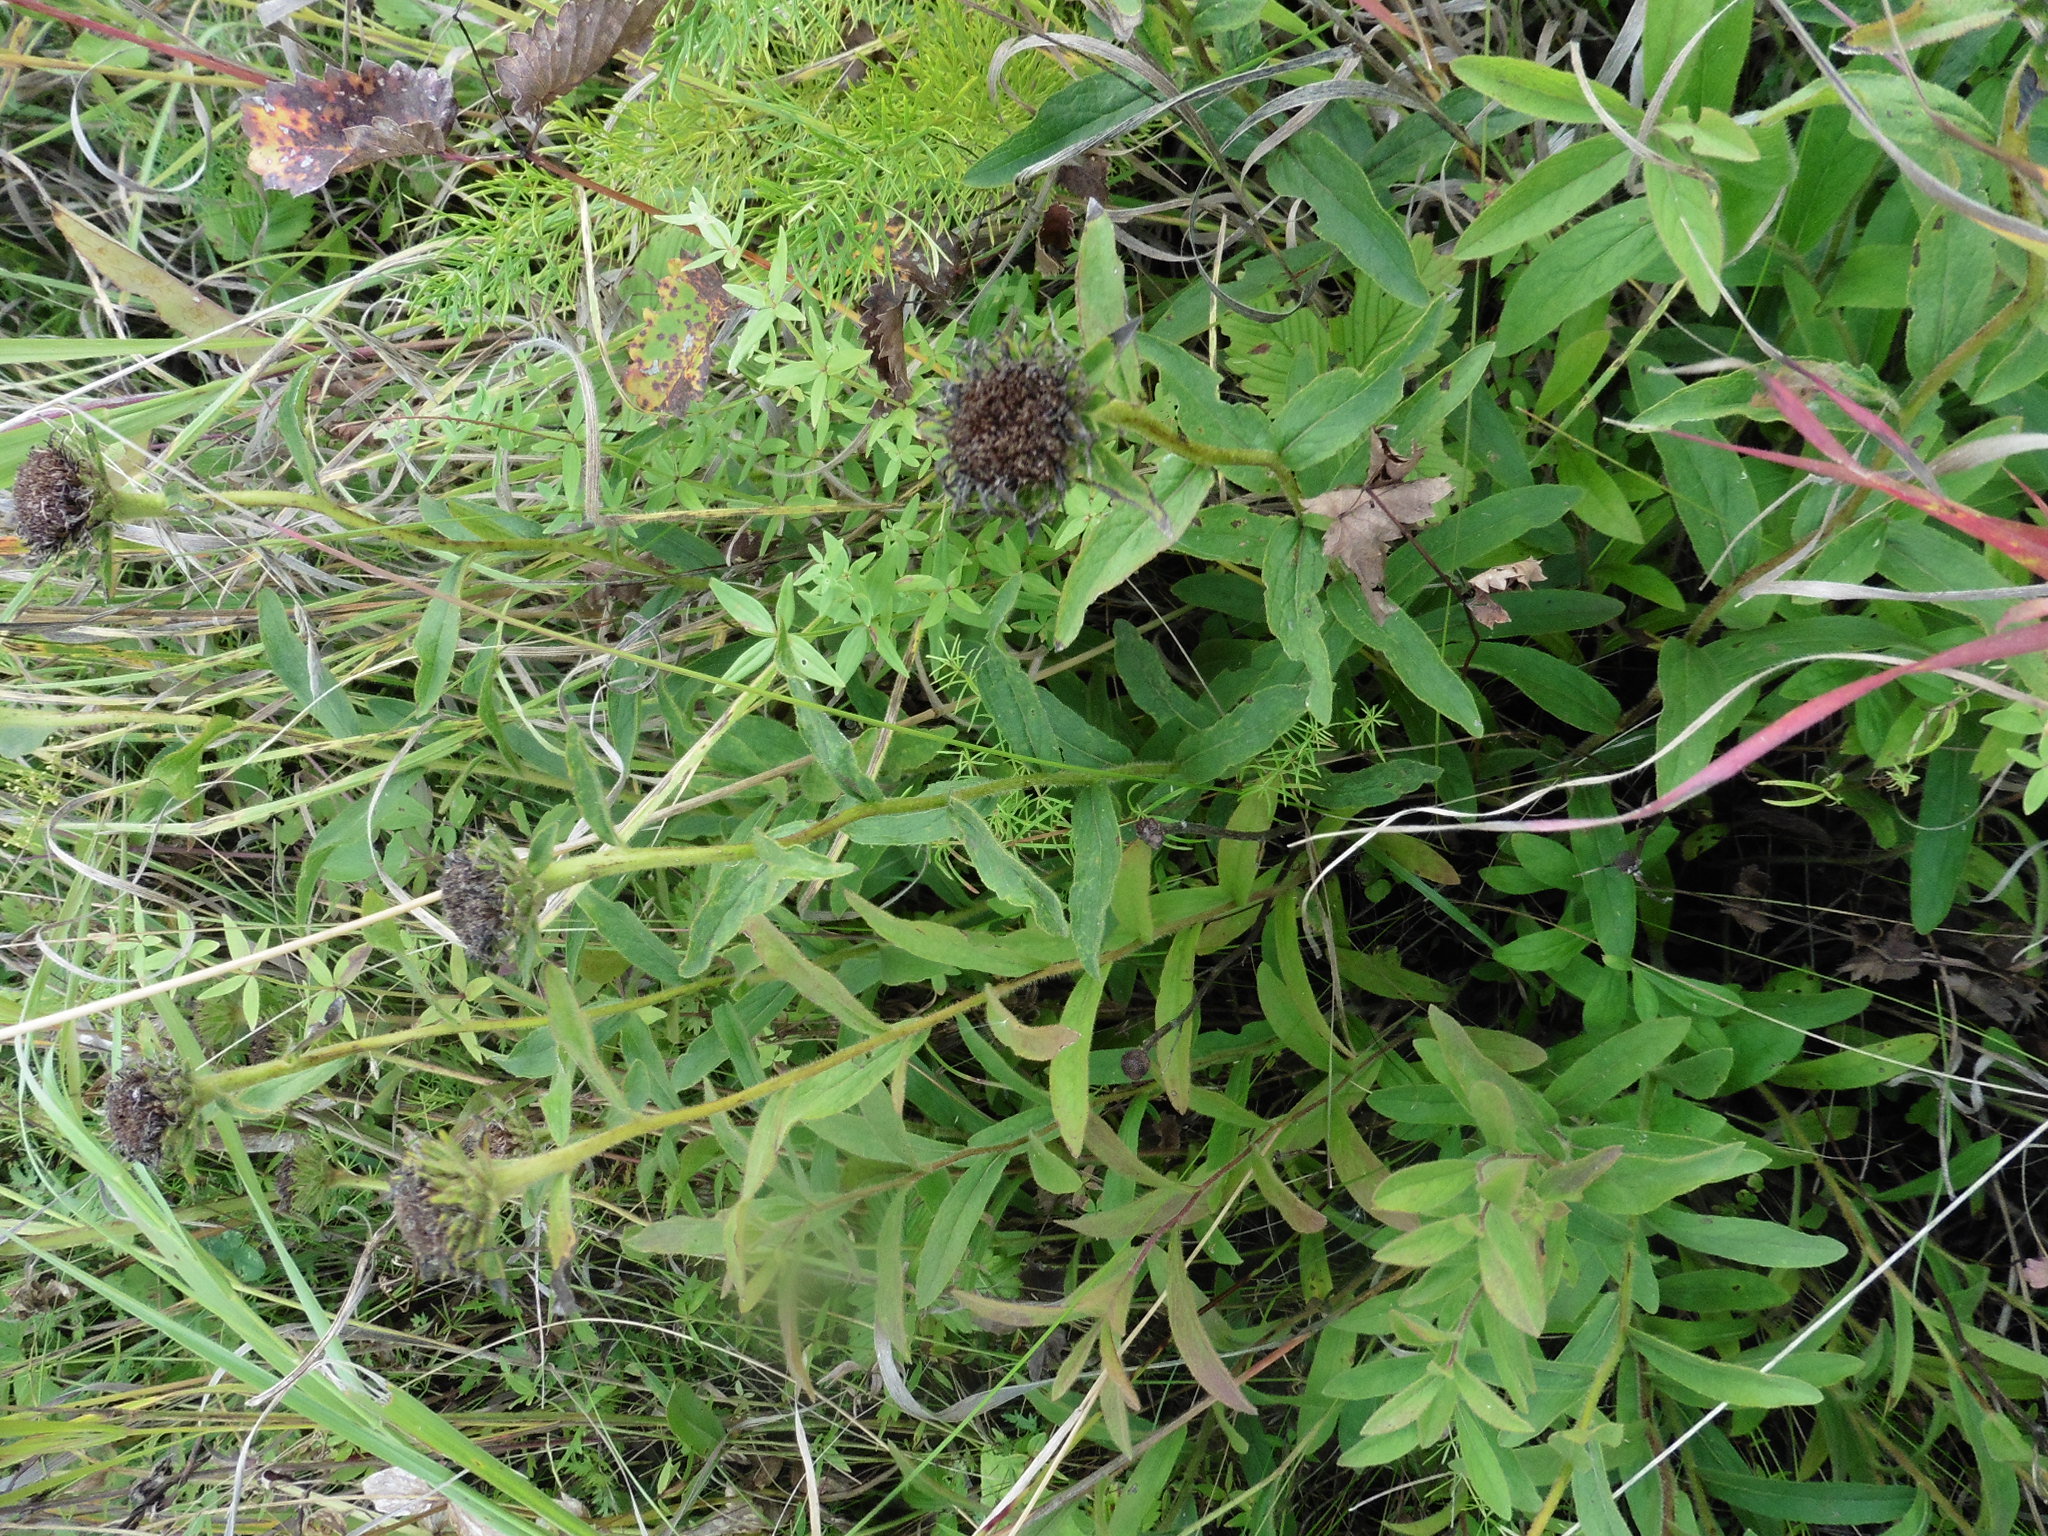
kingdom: Plantae
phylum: Tracheophyta
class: Magnoliopsida
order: Asterales
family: Asteraceae
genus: Pentanema
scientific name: Pentanema hirtum
